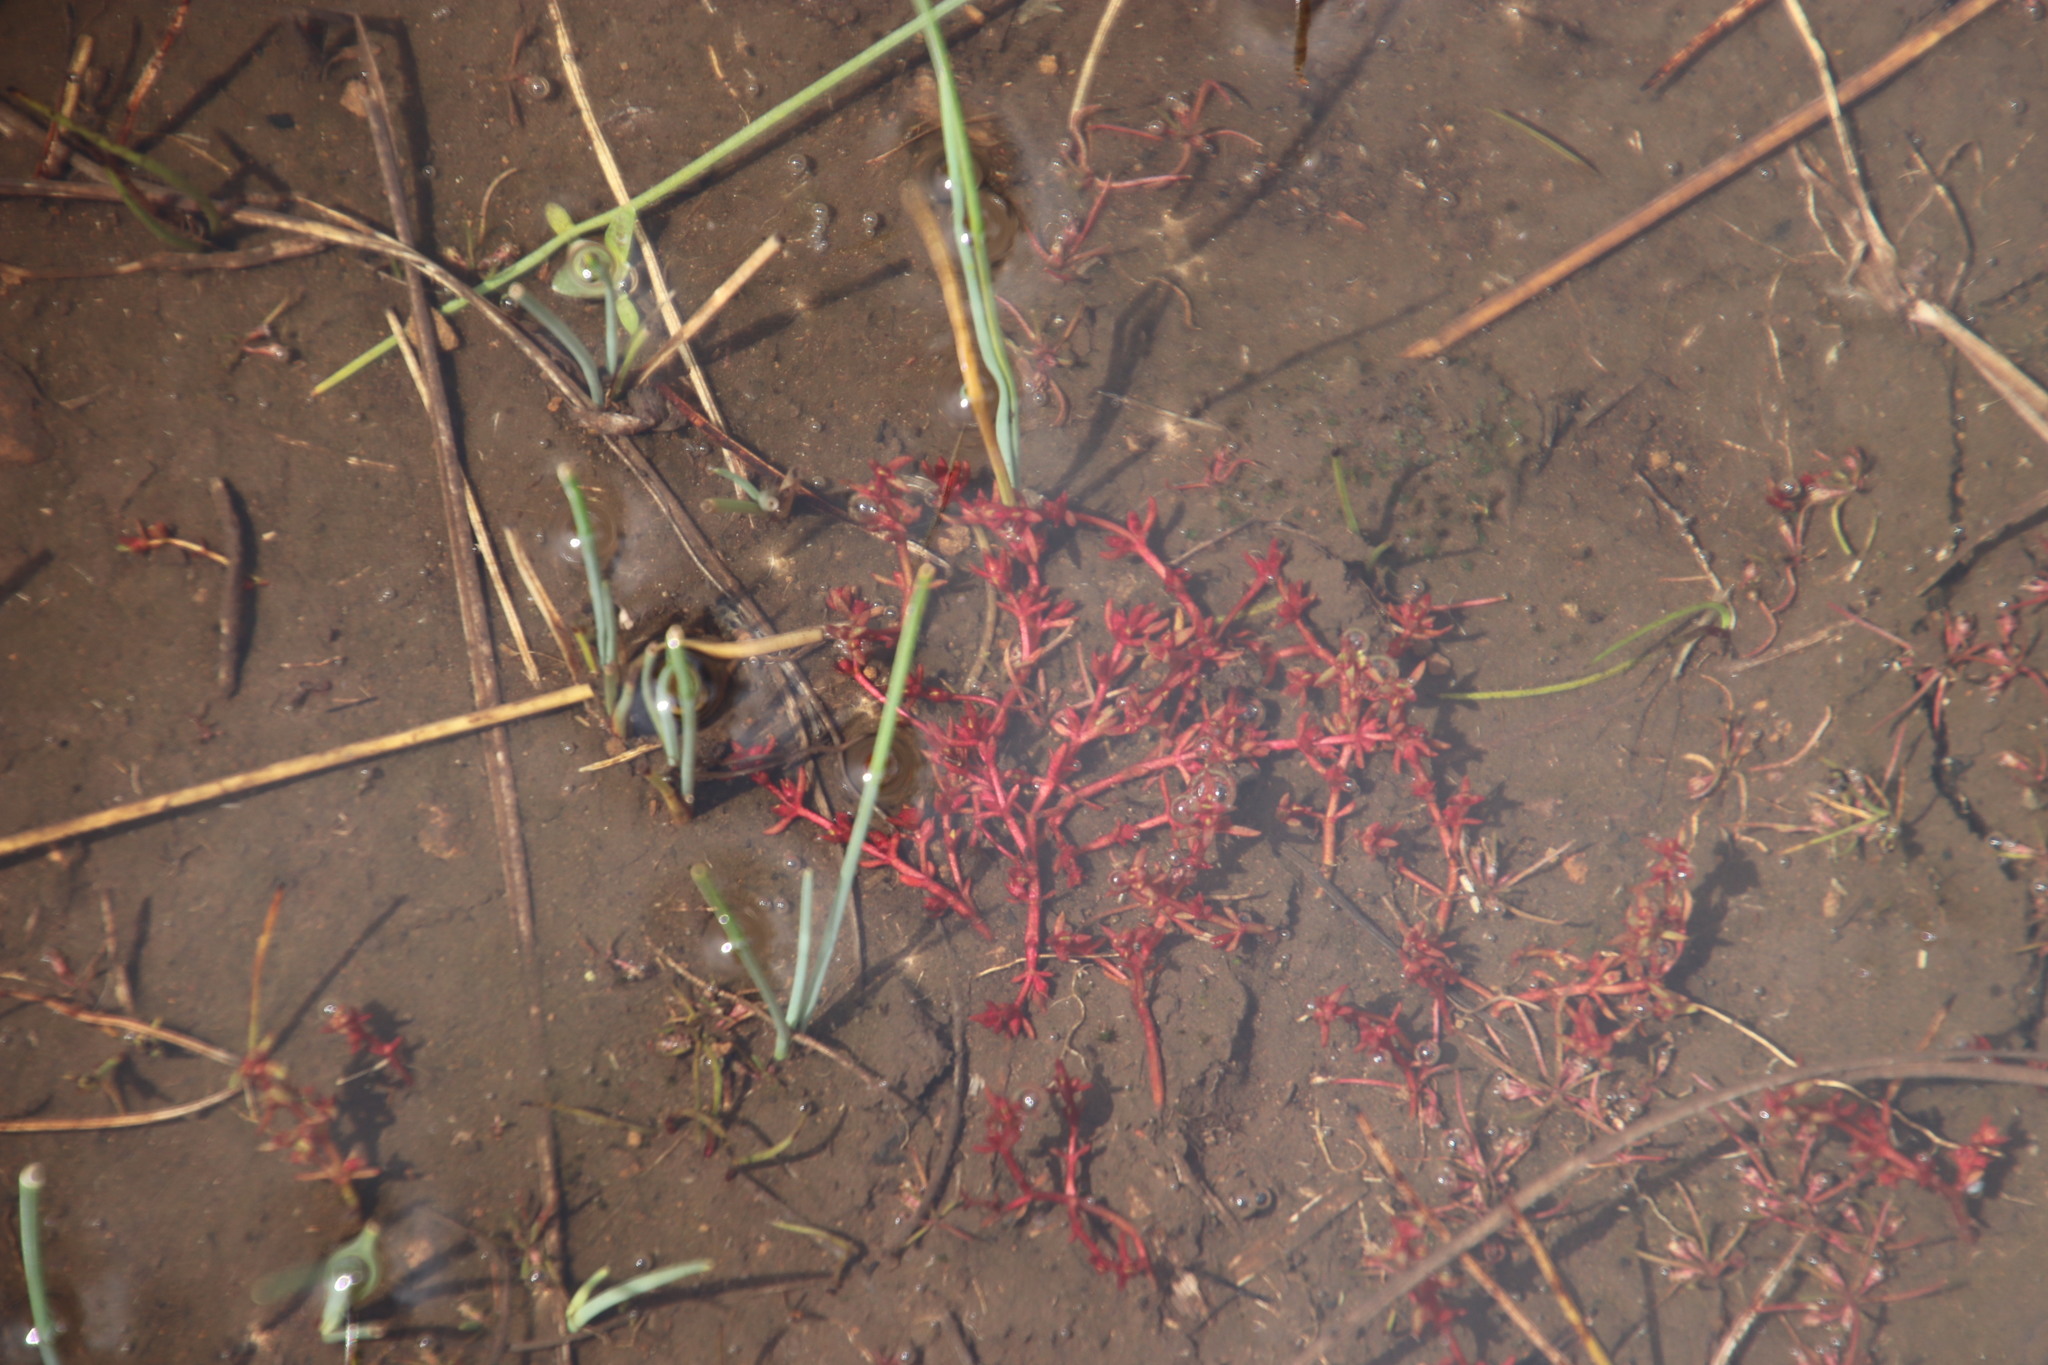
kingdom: Plantae
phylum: Tracheophyta
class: Magnoliopsida
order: Saxifragales
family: Crassulaceae
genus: Crassula
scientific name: Crassula peploides
